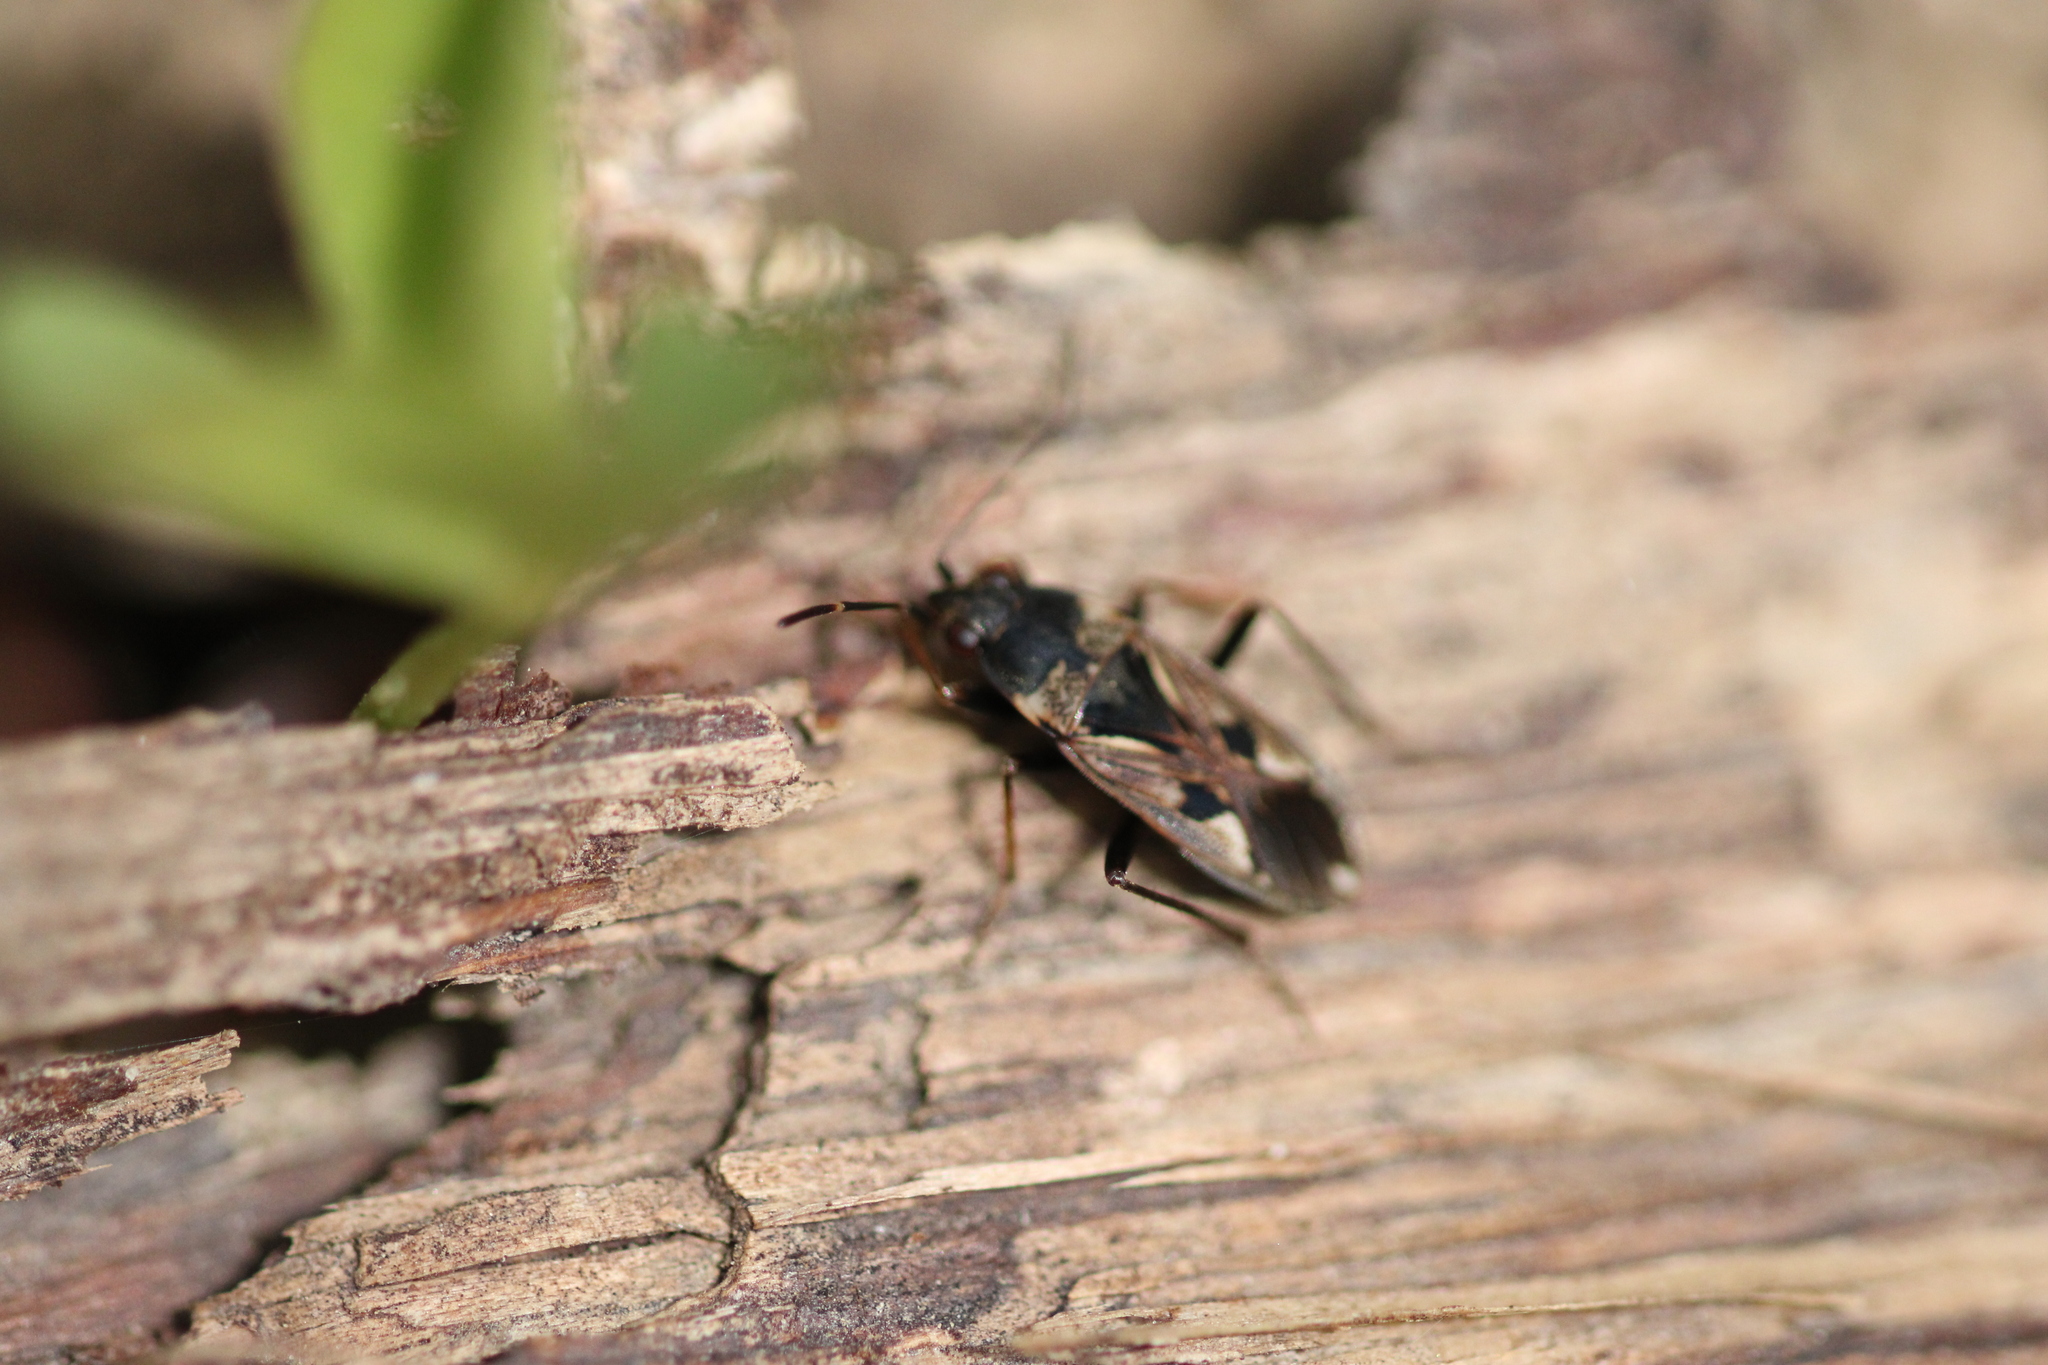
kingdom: Animalia
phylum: Arthropoda
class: Insecta
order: Hemiptera
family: Rhyparochromidae
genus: Rhyparochromus
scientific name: Rhyparochromus vulgaris
